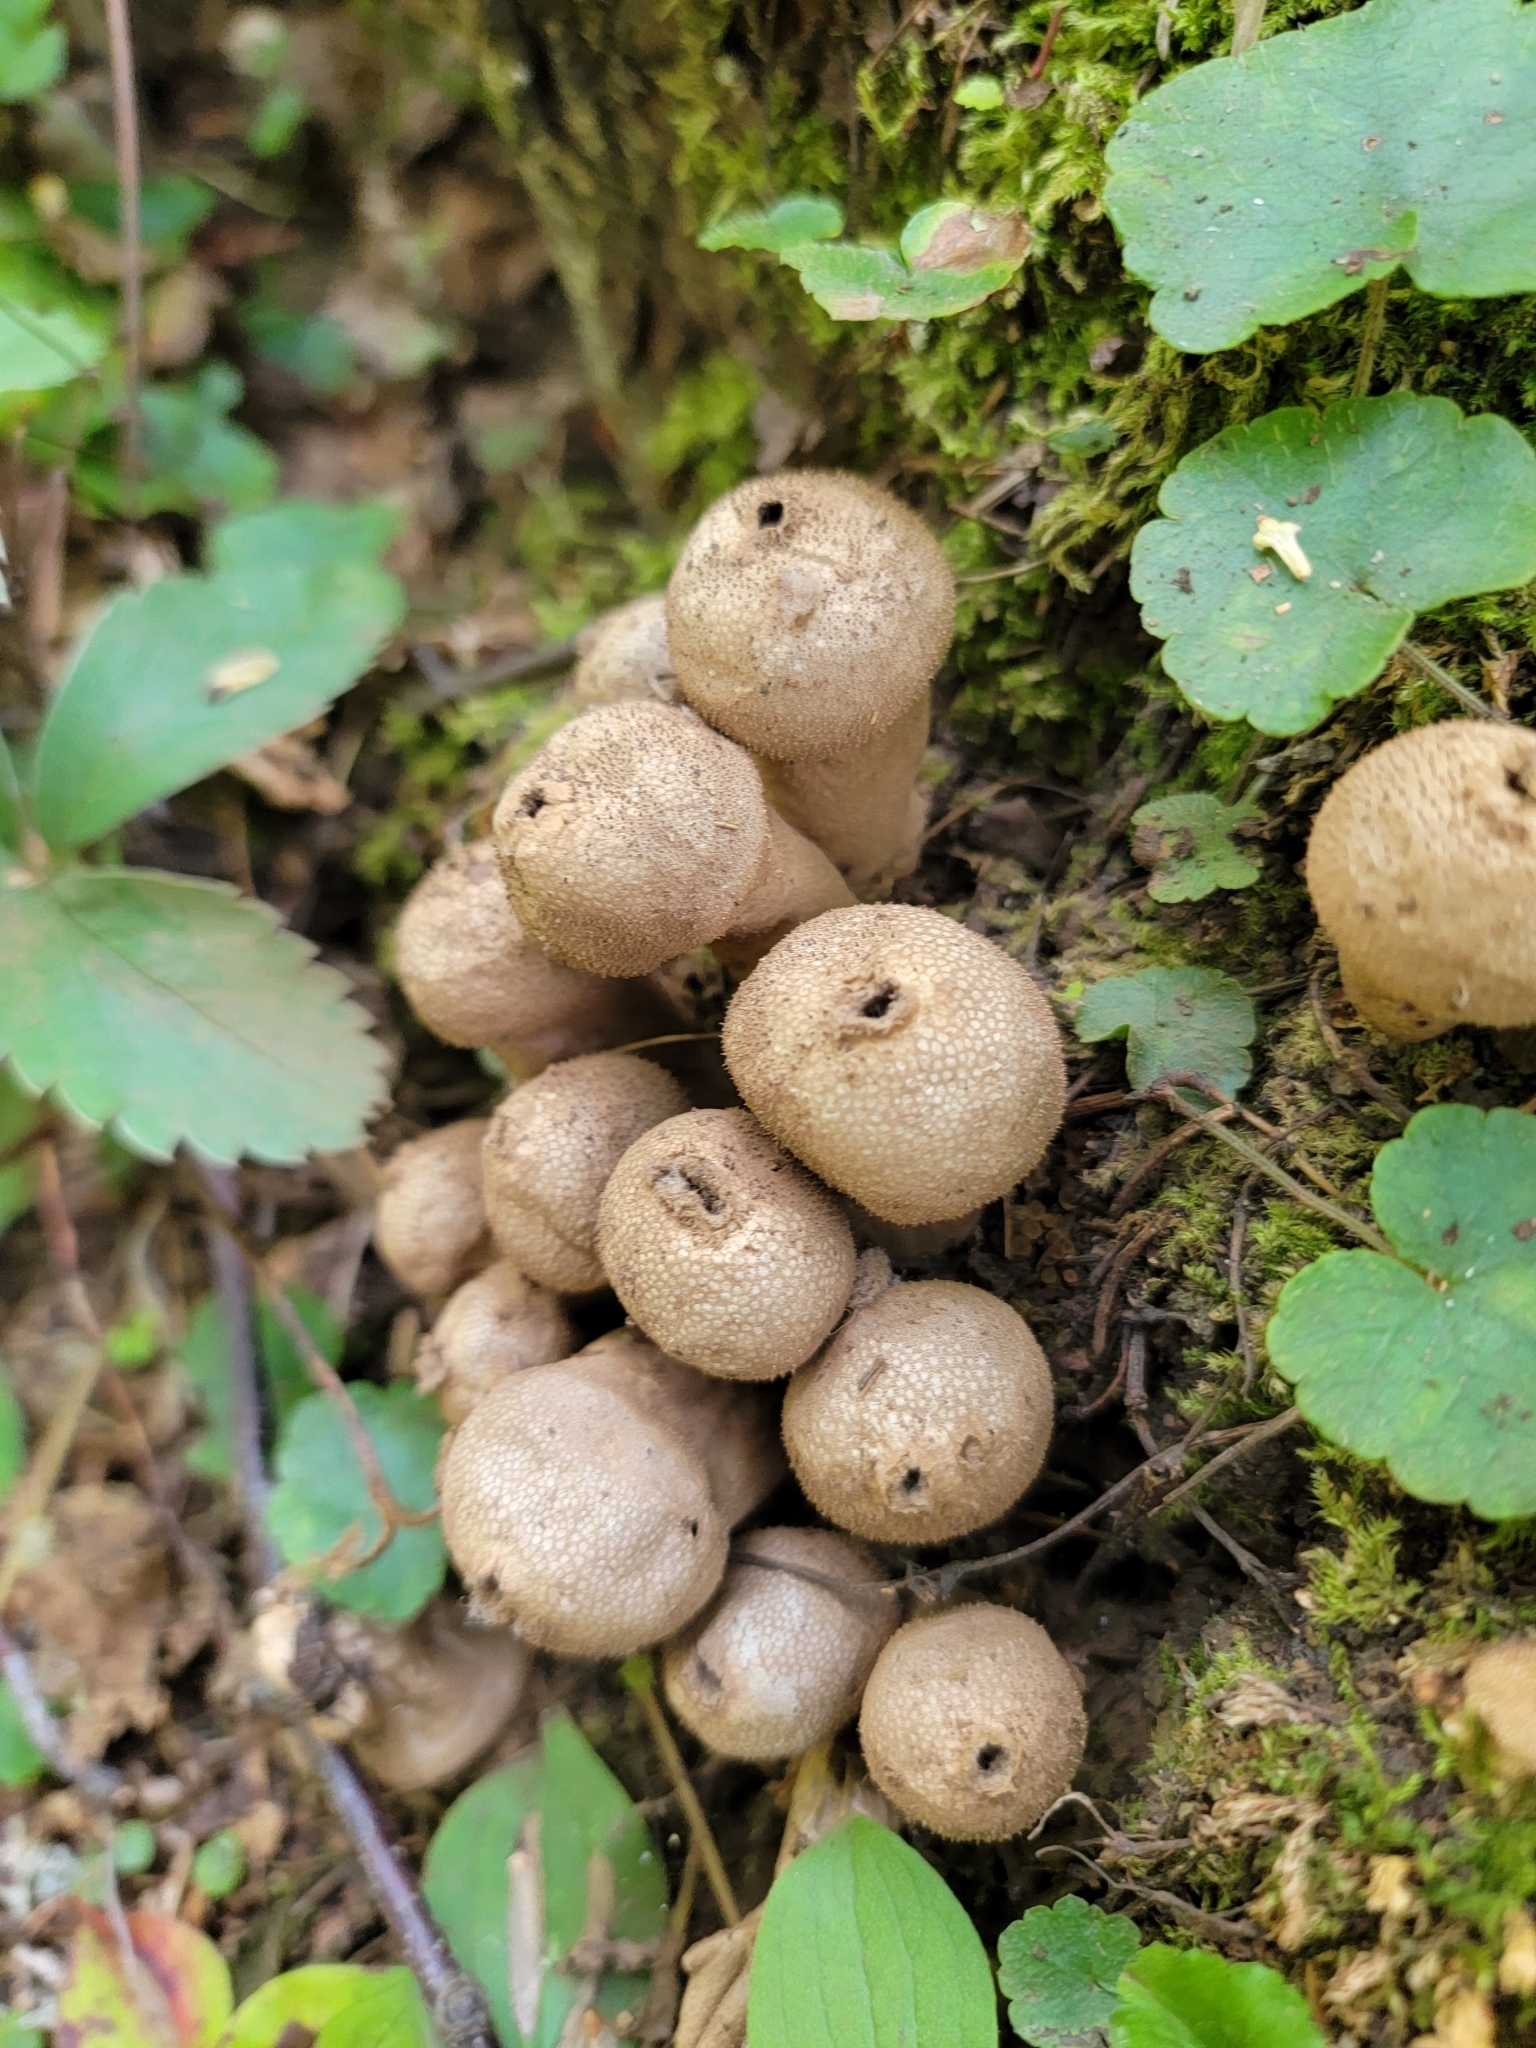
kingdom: Fungi
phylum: Basidiomycota
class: Agaricomycetes
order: Agaricales
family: Lycoperdaceae
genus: Lycoperdon
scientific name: Lycoperdon perlatum
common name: Common puffball
